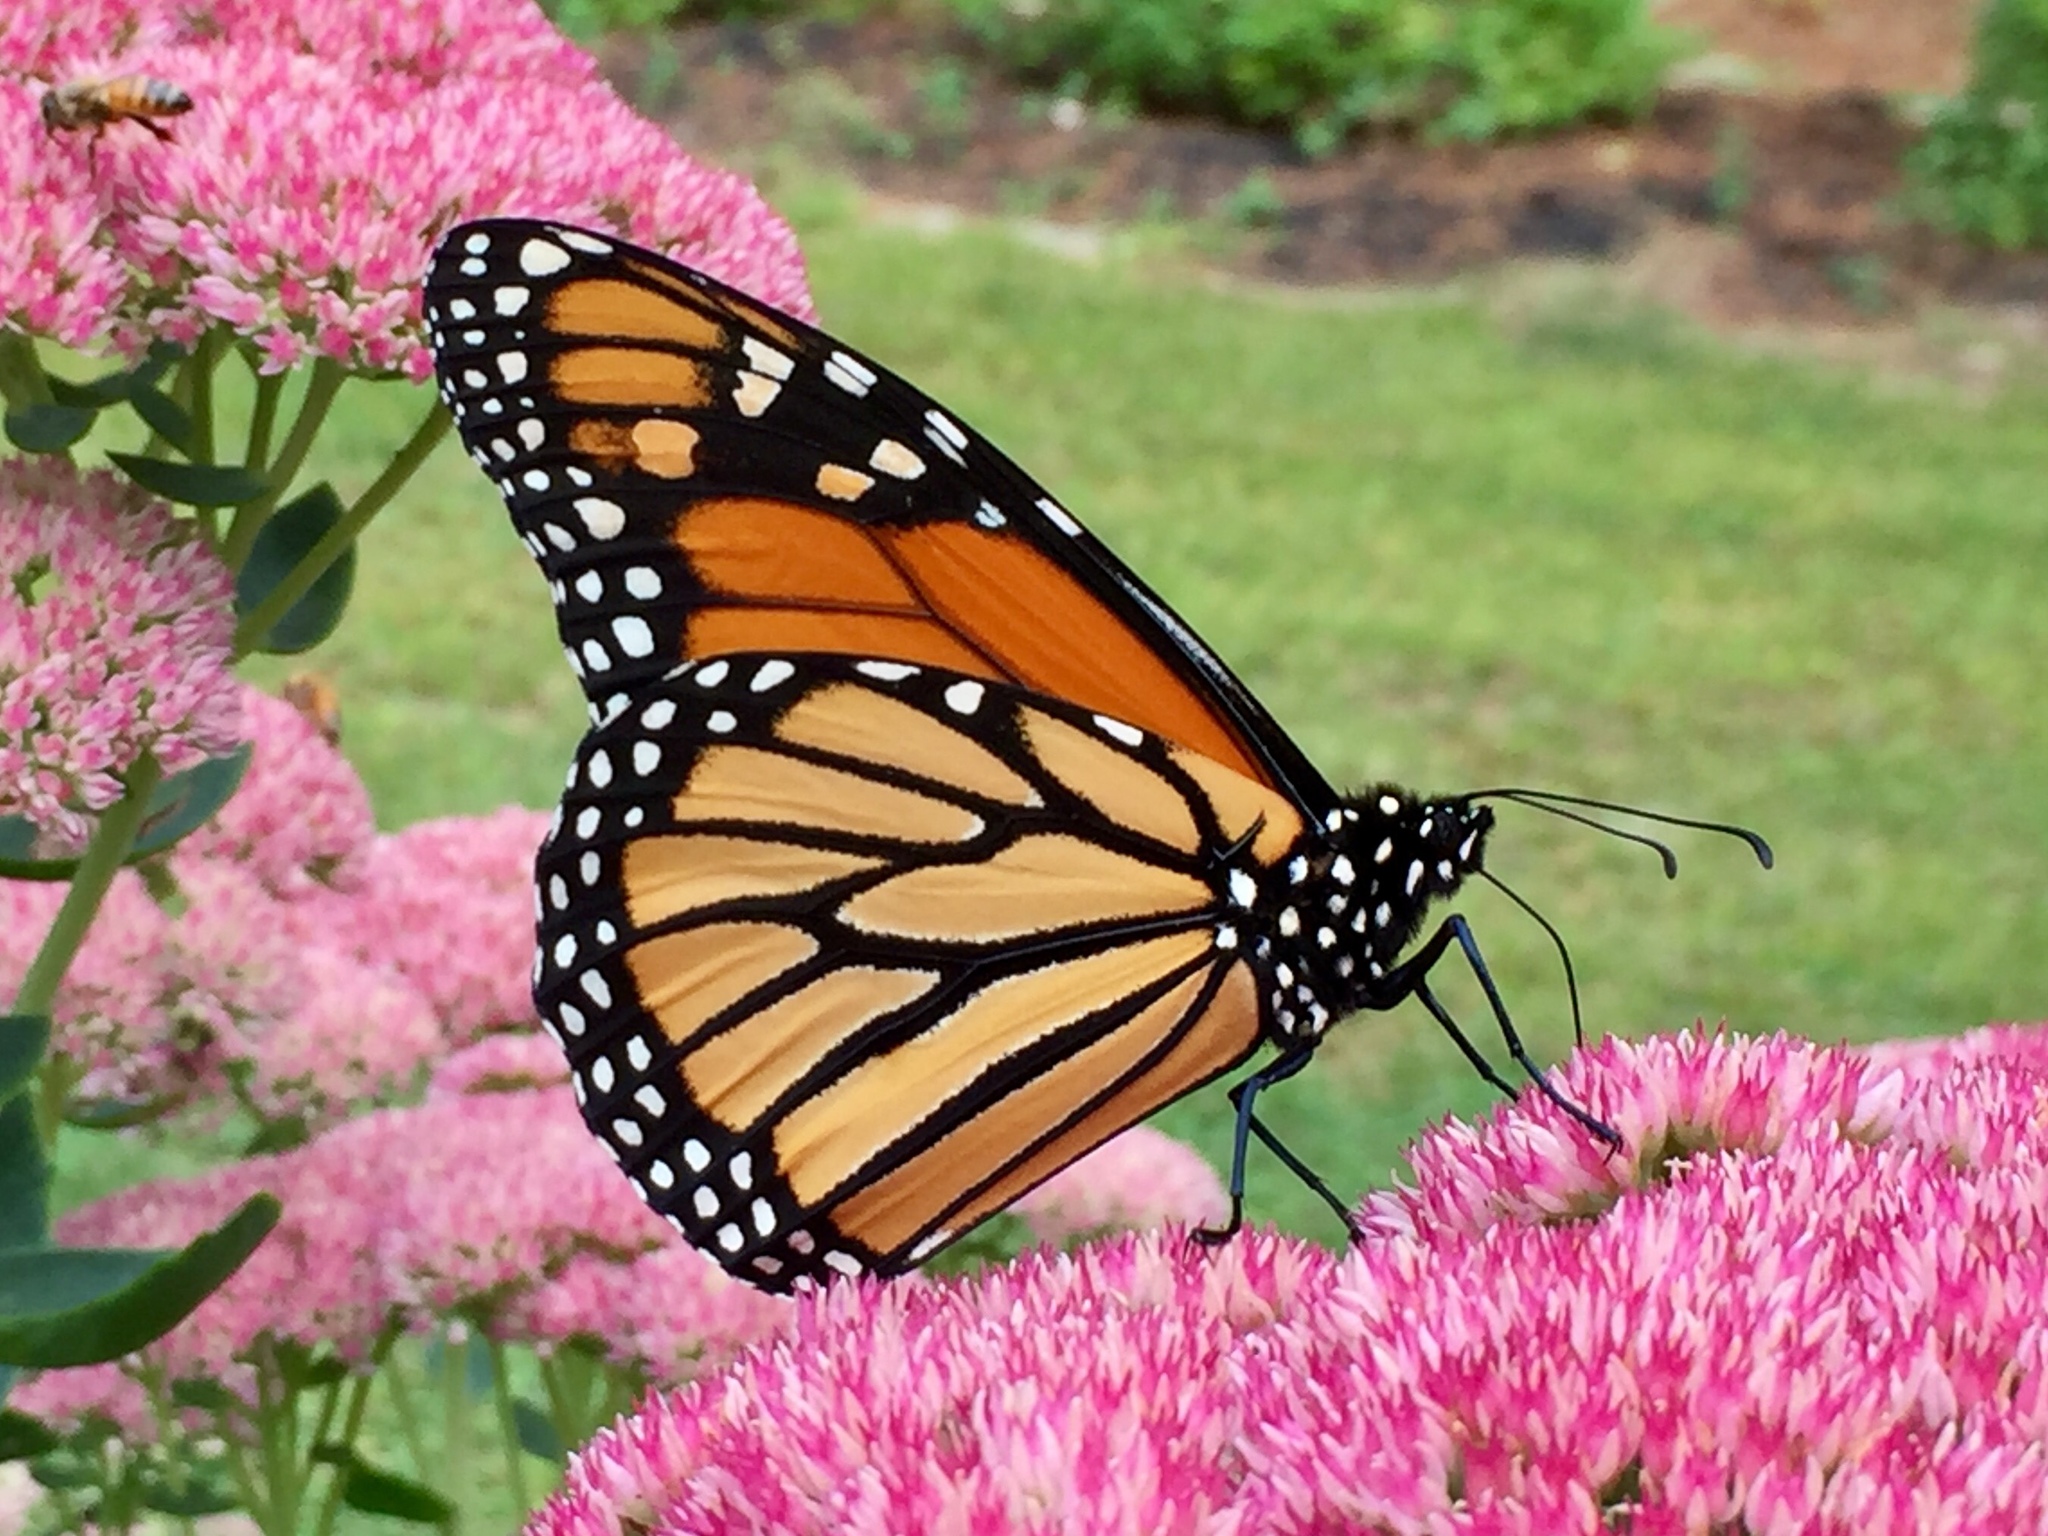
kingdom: Animalia
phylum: Arthropoda
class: Insecta
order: Lepidoptera
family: Nymphalidae
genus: Danaus
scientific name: Danaus plexippus
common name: Monarch
